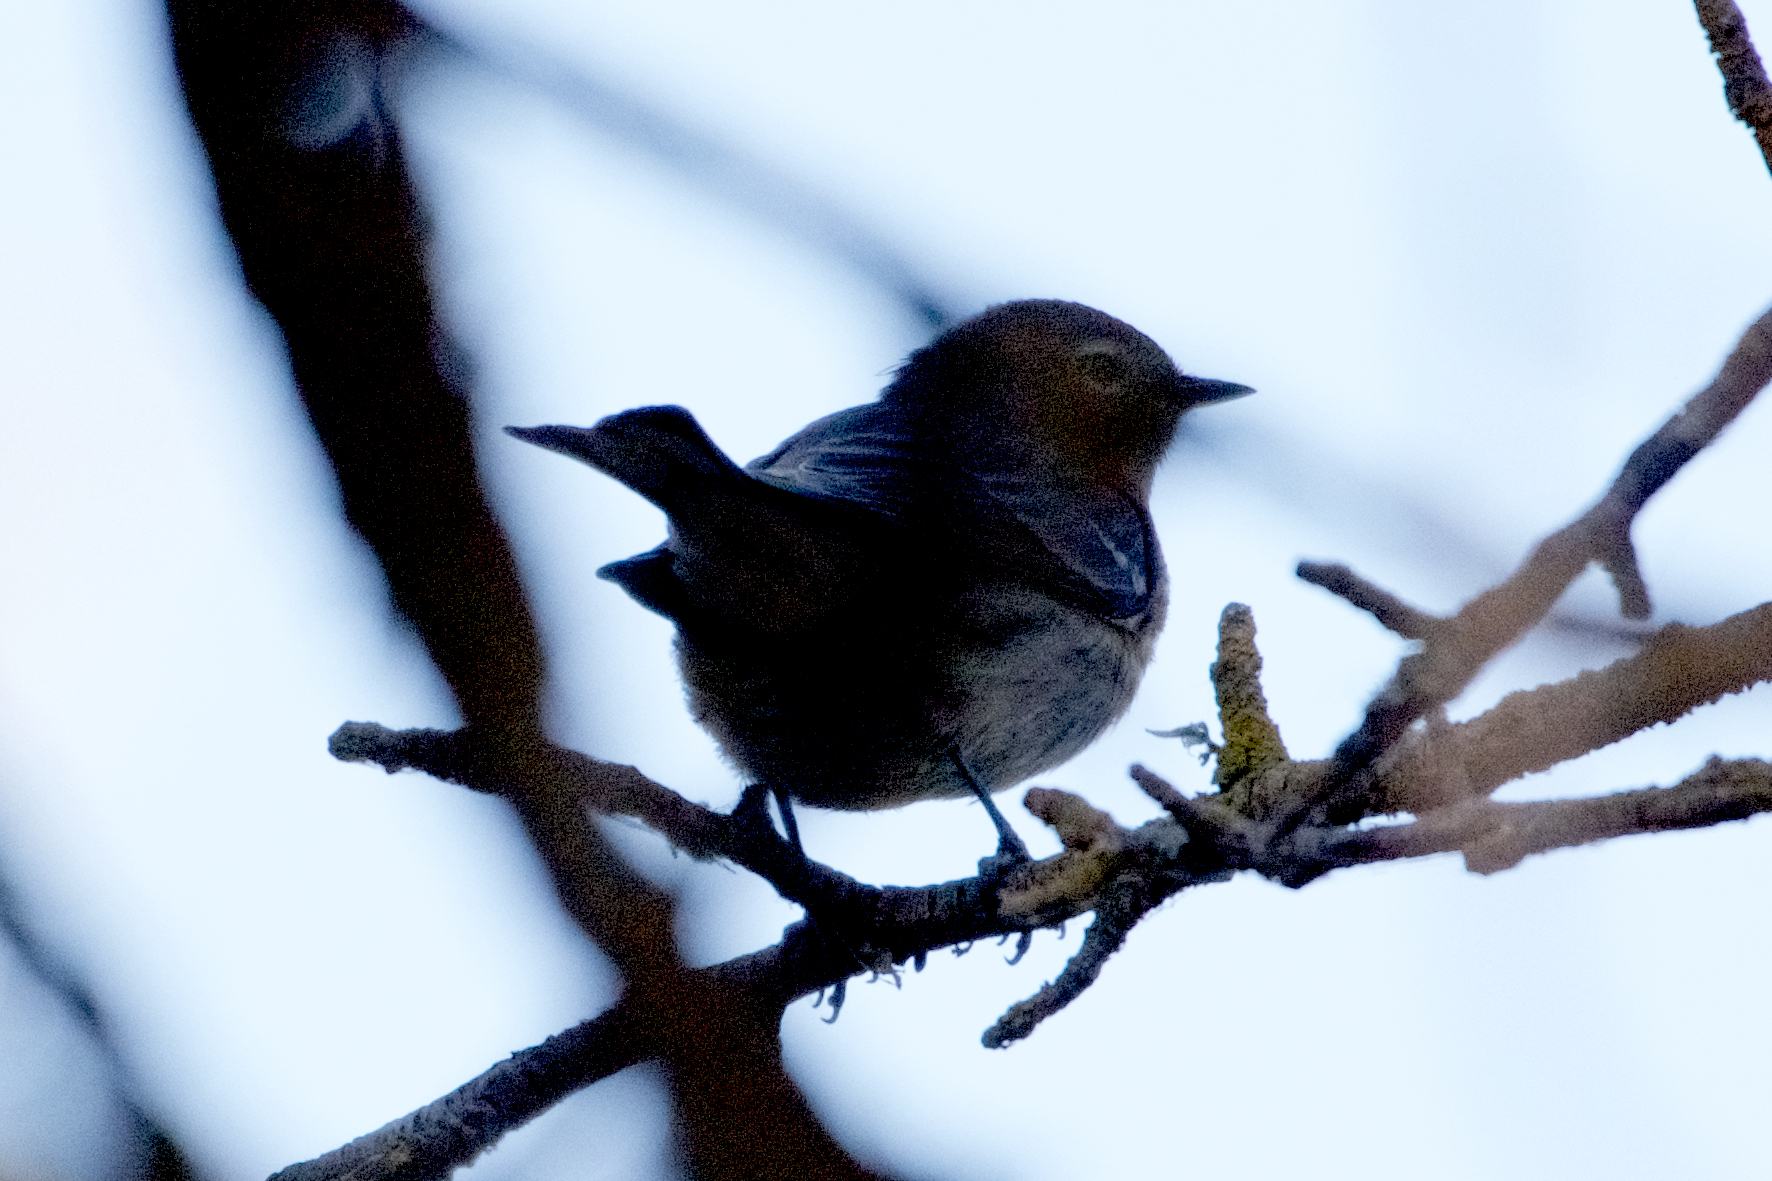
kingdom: Animalia
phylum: Chordata
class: Aves
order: Passeriformes
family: Parulidae
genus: Setophaga
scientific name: Setophaga coronata
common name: Myrtle warbler
